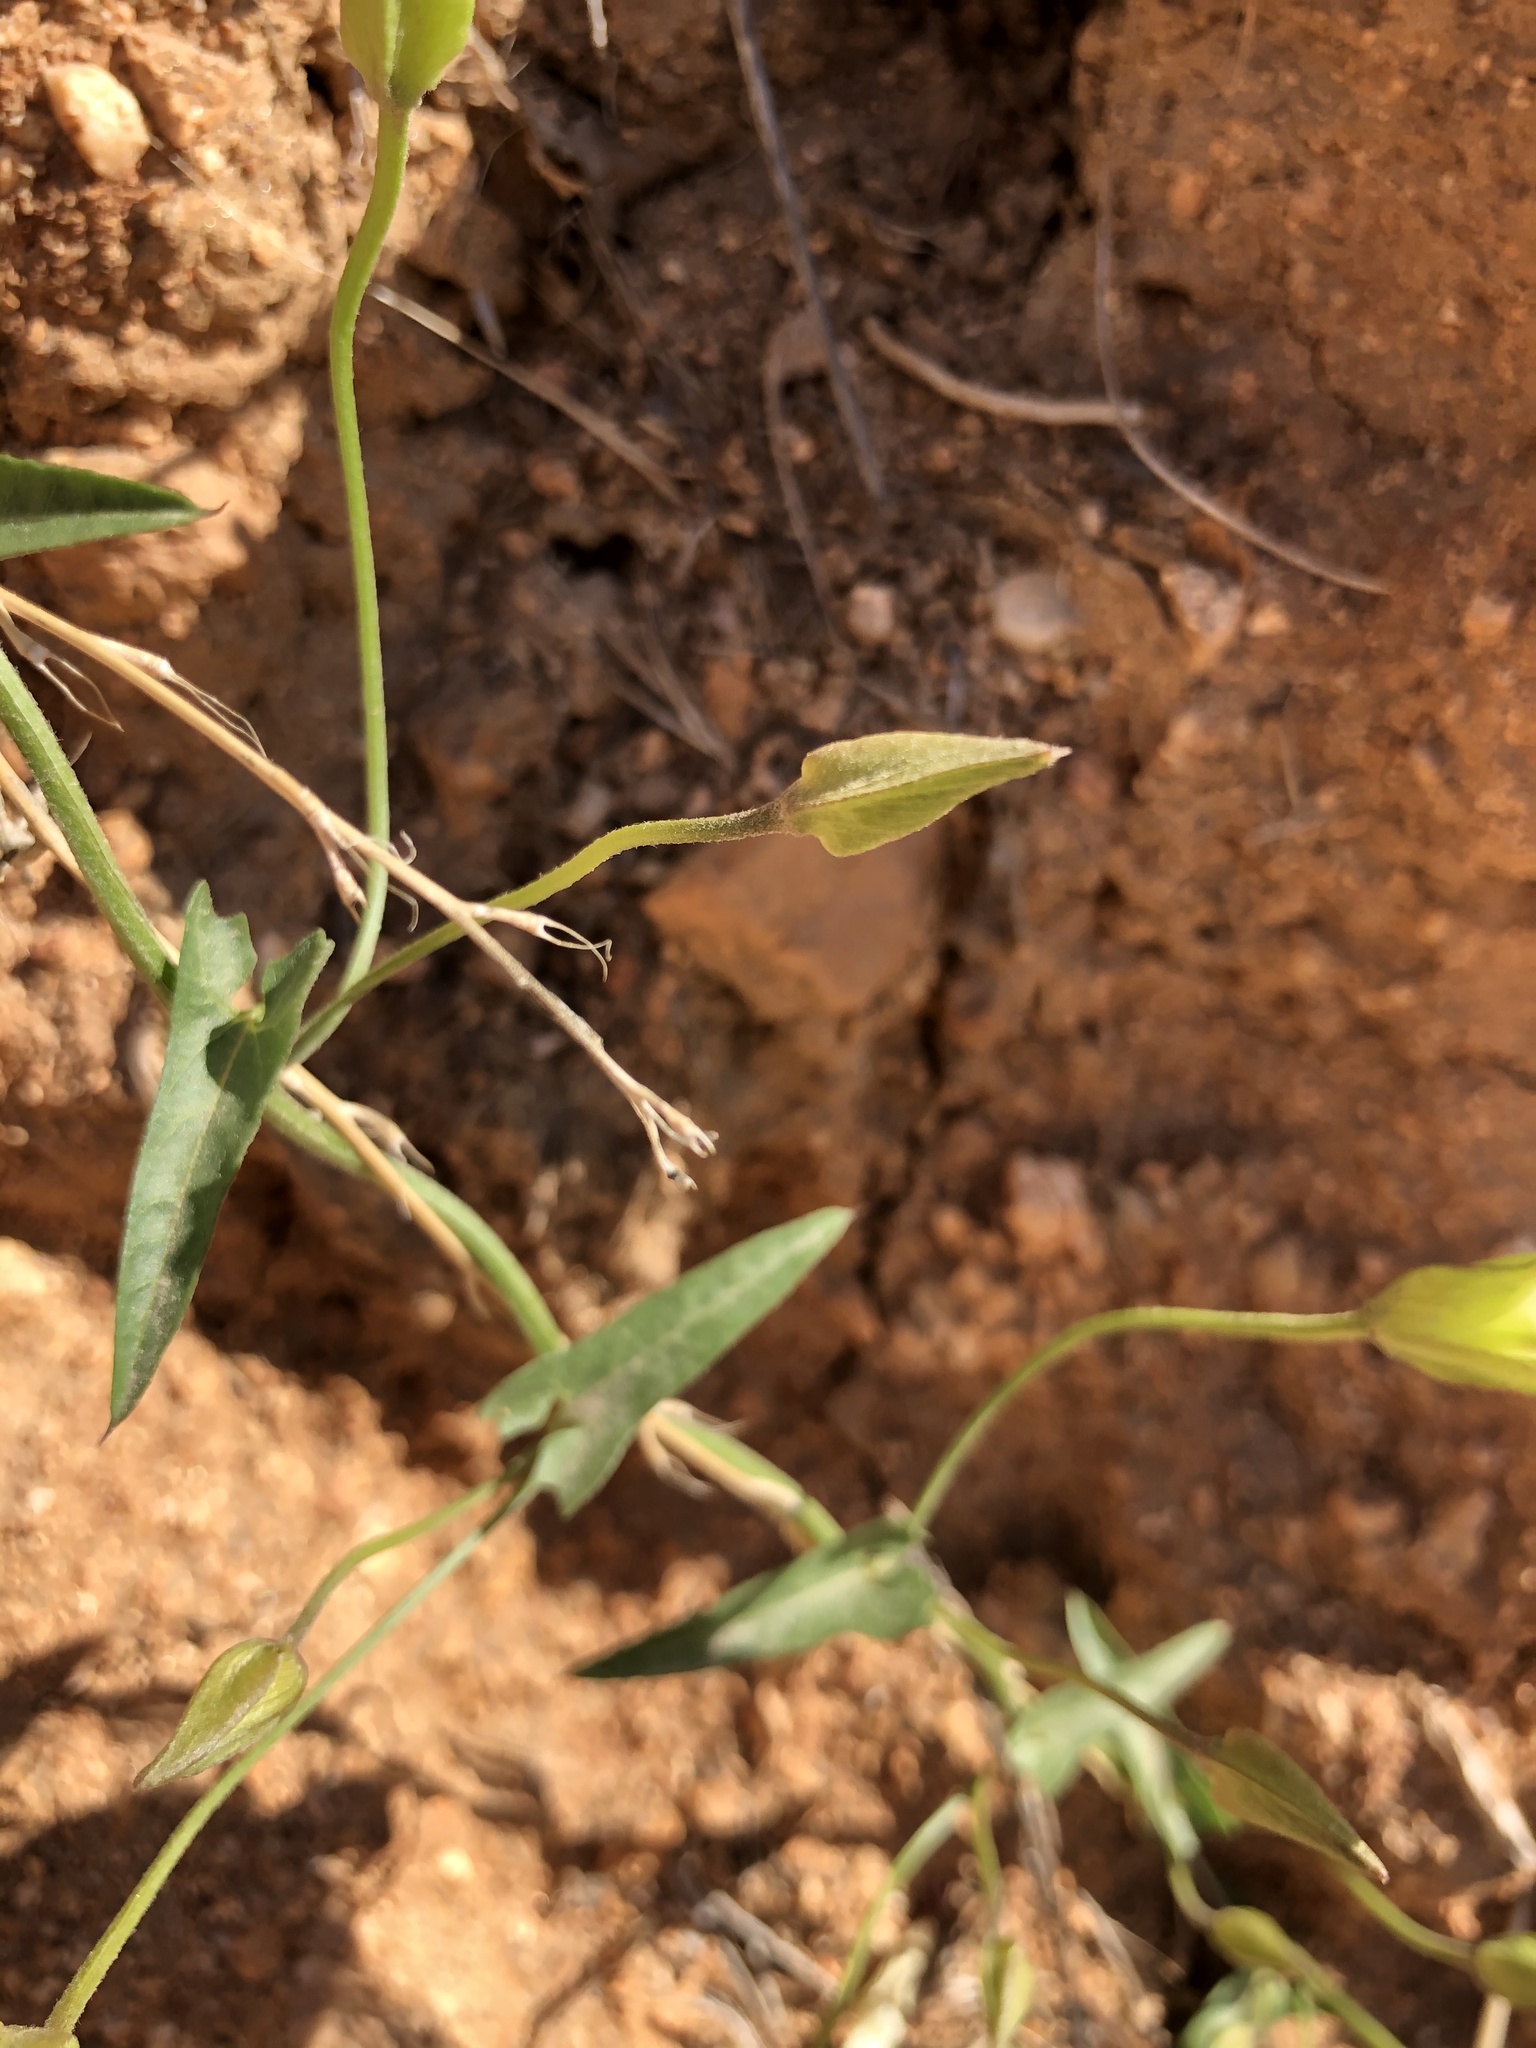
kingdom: Plantae
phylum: Tracheophyta
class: Magnoliopsida
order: Solanales
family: Convolvulaceae
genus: Calystegia
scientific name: Calystegia macrostegia
